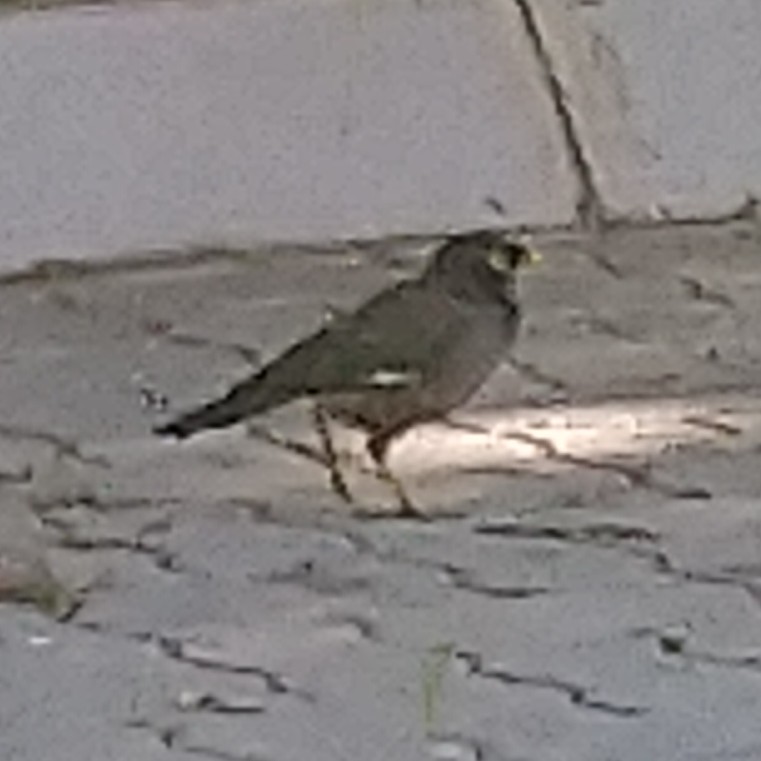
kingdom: Animalia
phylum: Chordata
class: Aves
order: Passeriformes
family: Sturnidae
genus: Acridotheres
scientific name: Acridotheres tristis
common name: Common myna
